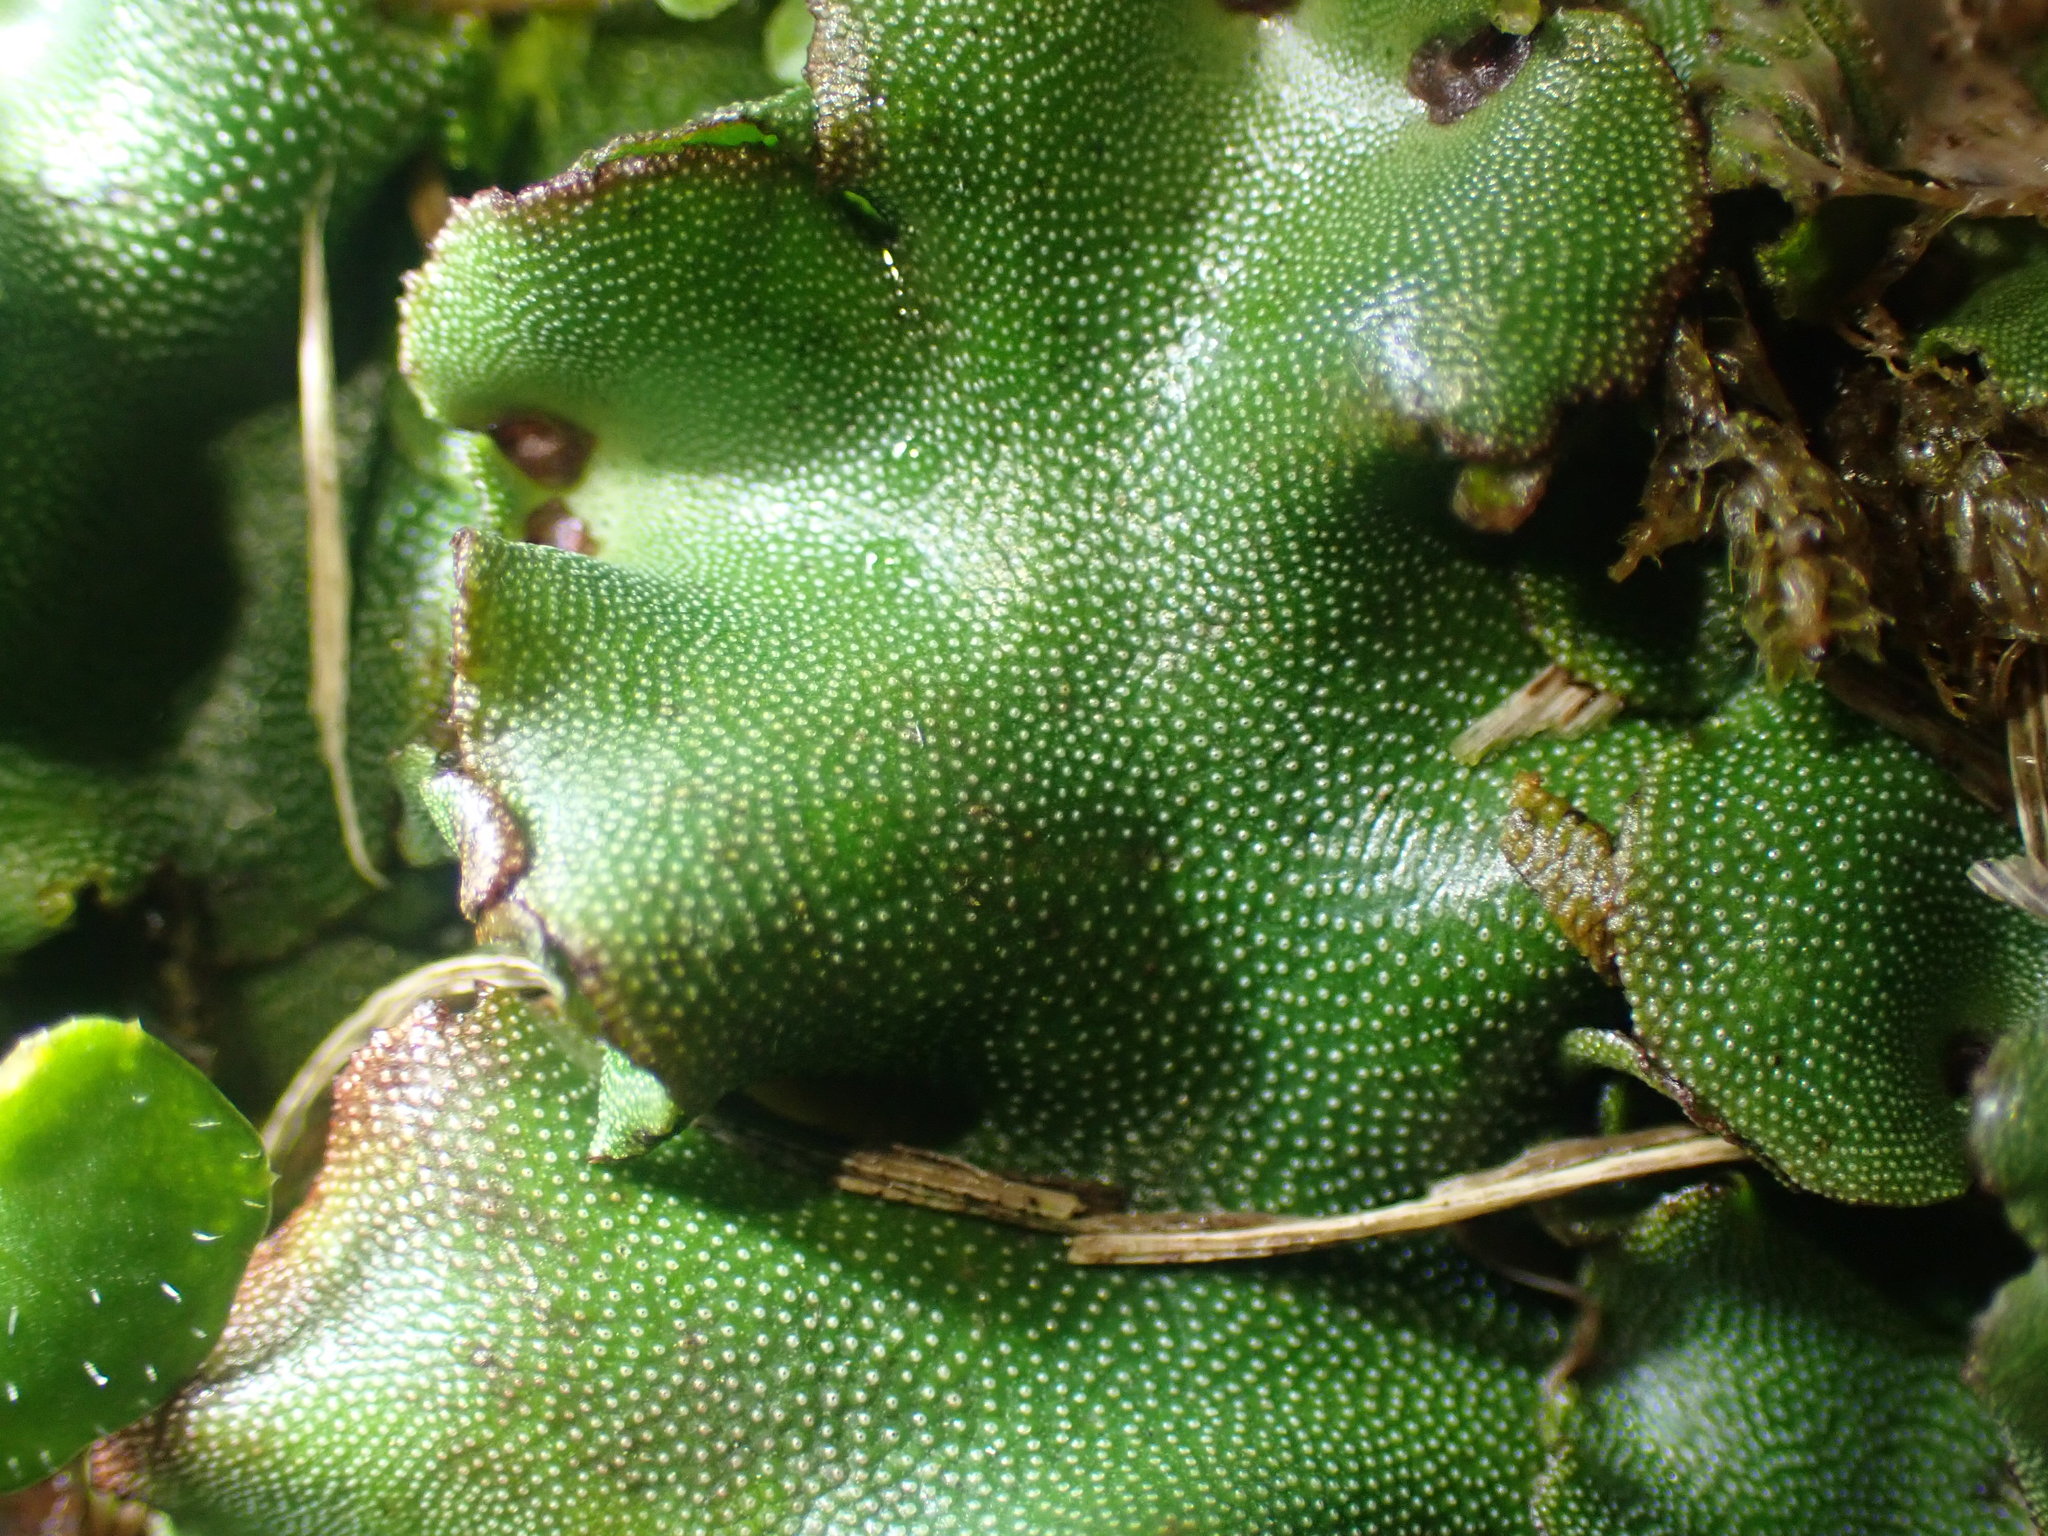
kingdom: Plantae
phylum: Marchantiophyta
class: Marchantiopsida
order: Marchantiales
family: Marchantiaceae
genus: Marchantia
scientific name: Marchantia berteroana
